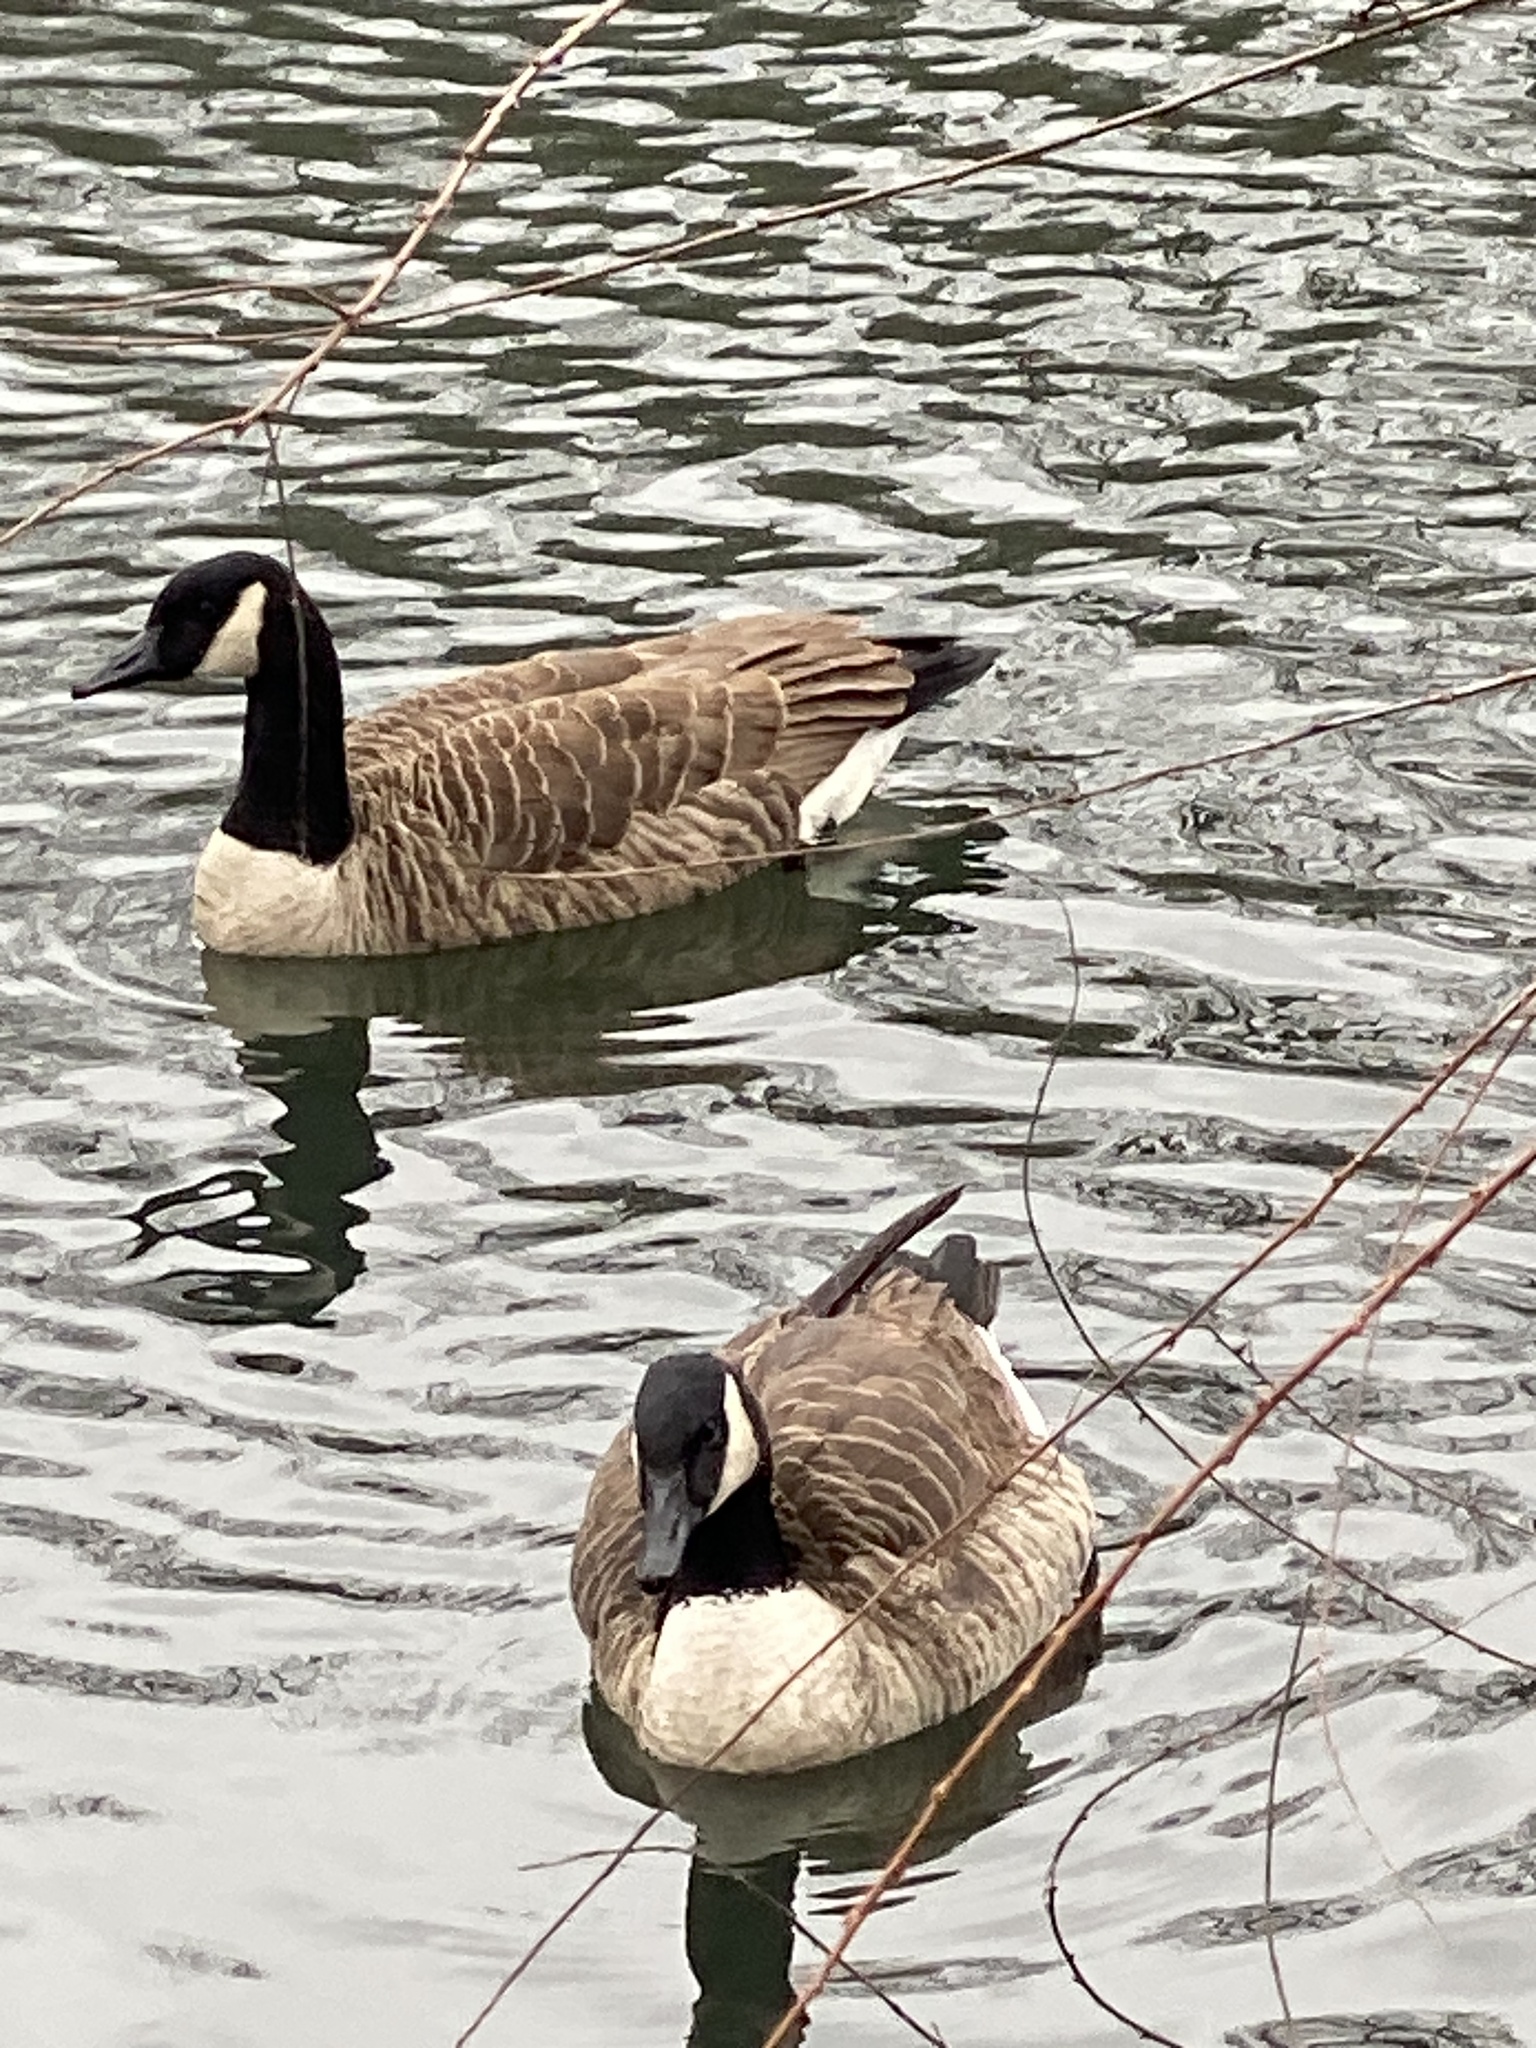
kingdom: Animalia
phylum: Chordata
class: Aves
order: Anseriformes
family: Anatidae
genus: Branta
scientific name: Branta canadensis
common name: Canada goose
